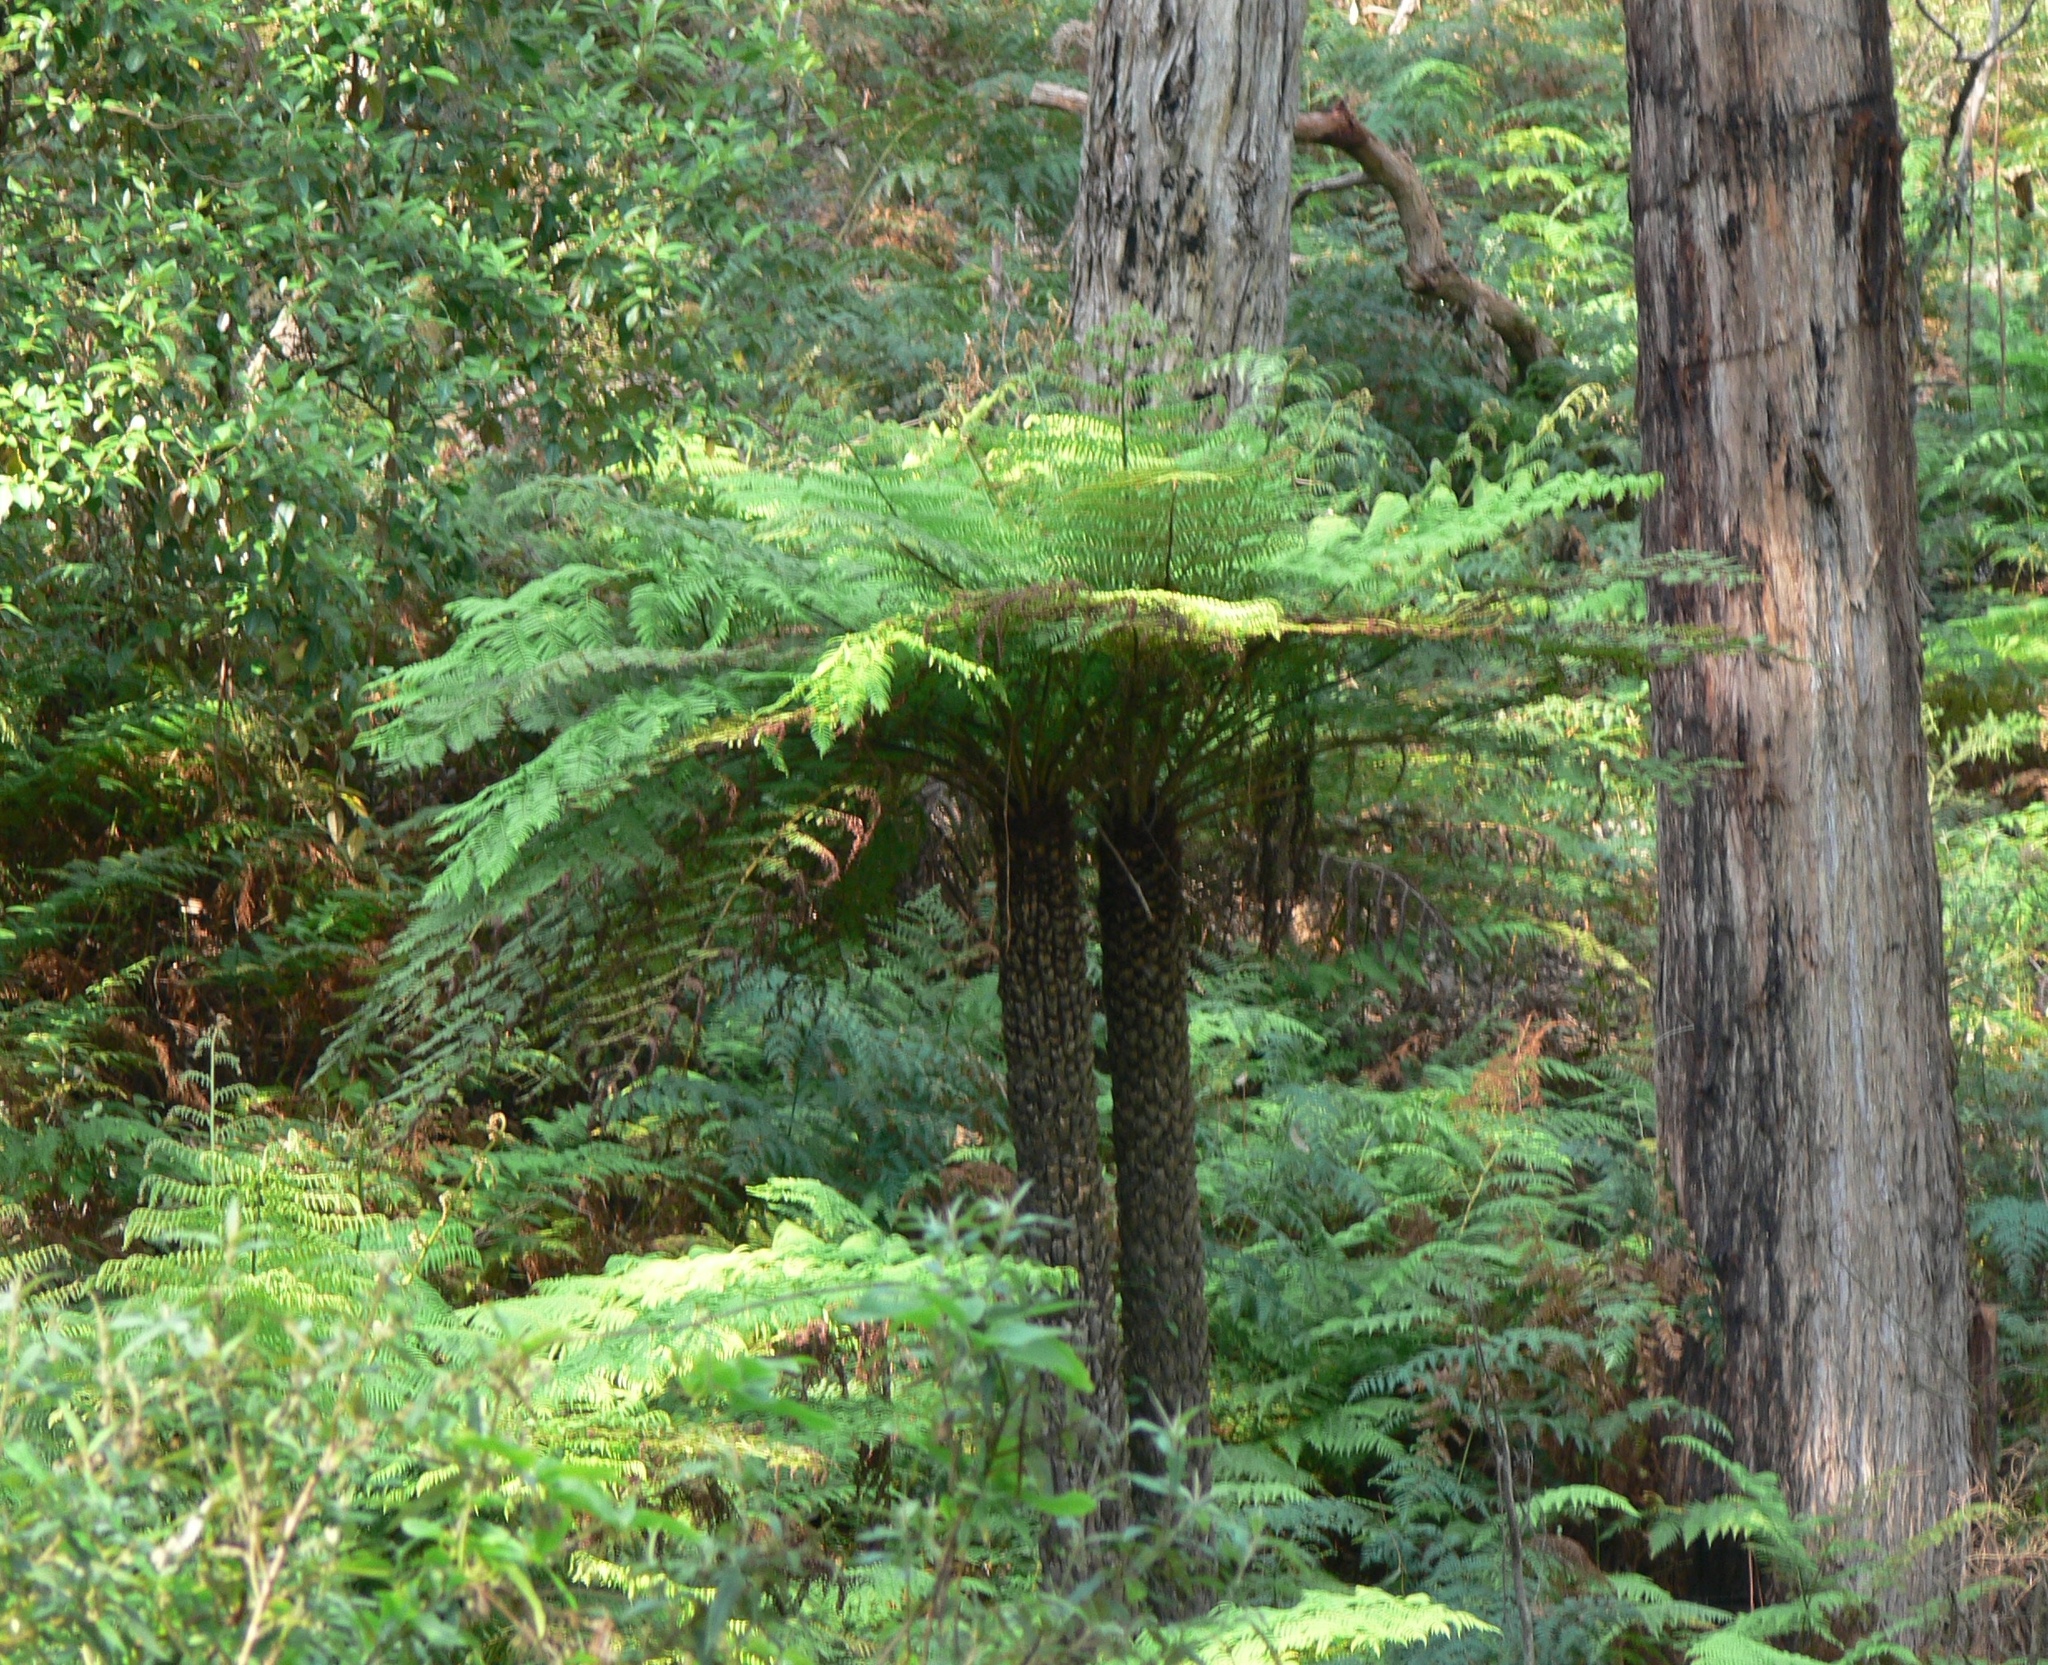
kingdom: Plantae
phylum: Tracheophyta
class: Polypodiopsida
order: Cyatheales
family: Cyatheaceae
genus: Alsophila
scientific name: Alsophila australis
